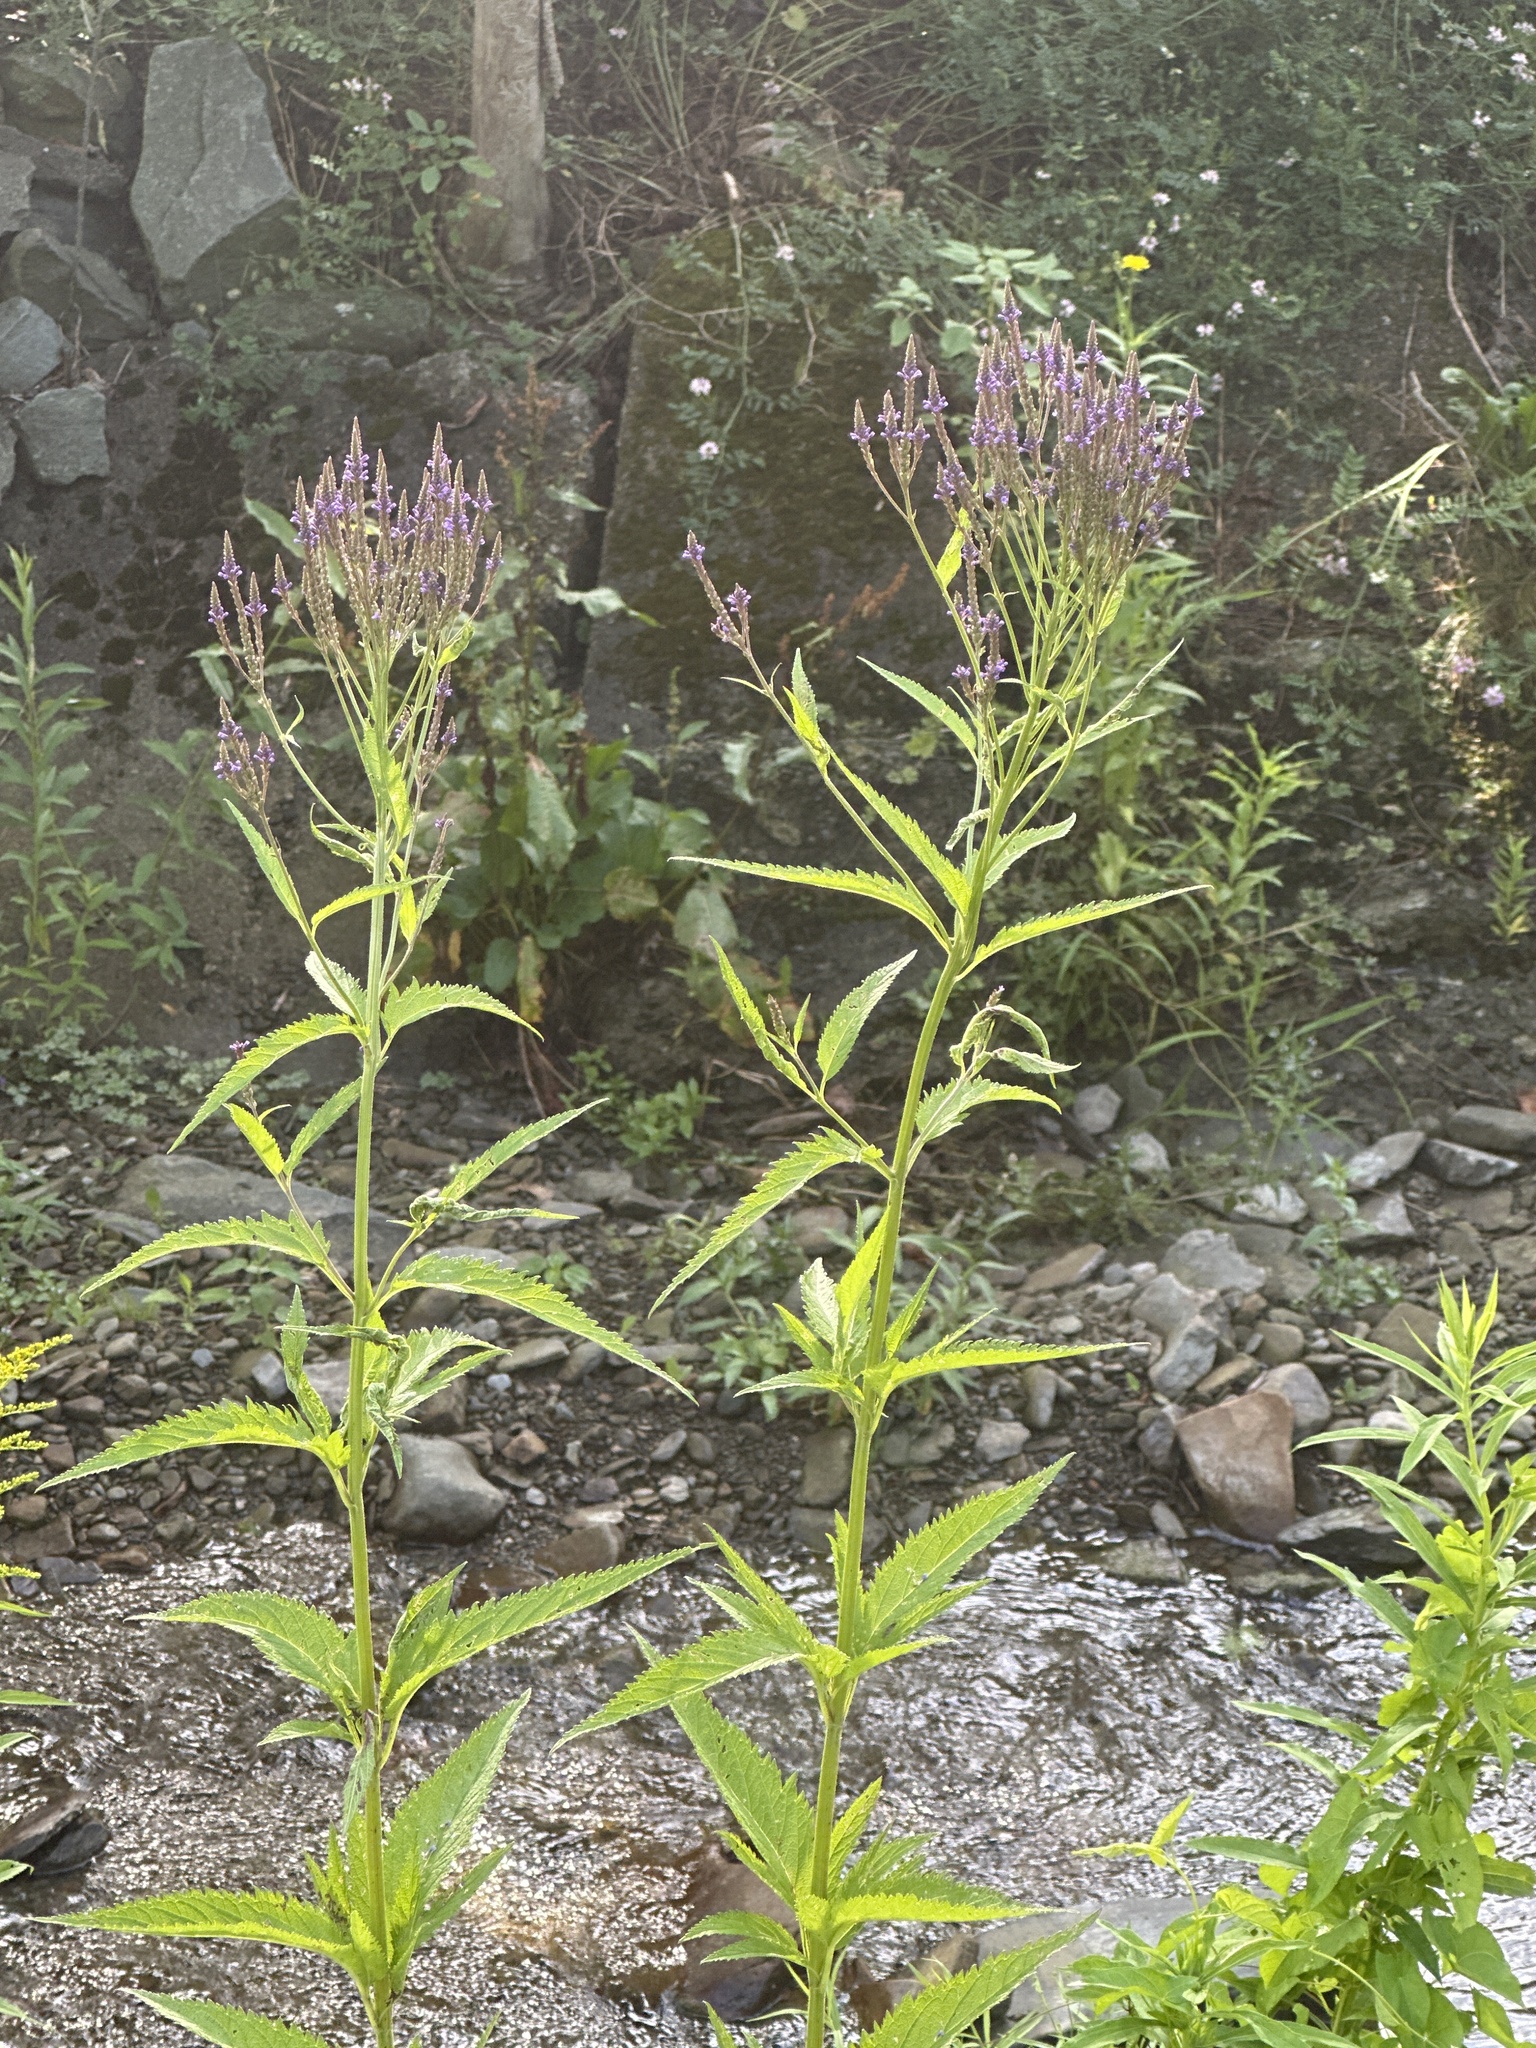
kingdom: Plantae
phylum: Tracheophyta
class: Magnoliopsida
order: Lamiales
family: Verbenaceae
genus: Verbena
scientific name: Verbena hastata
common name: American blue vervain
